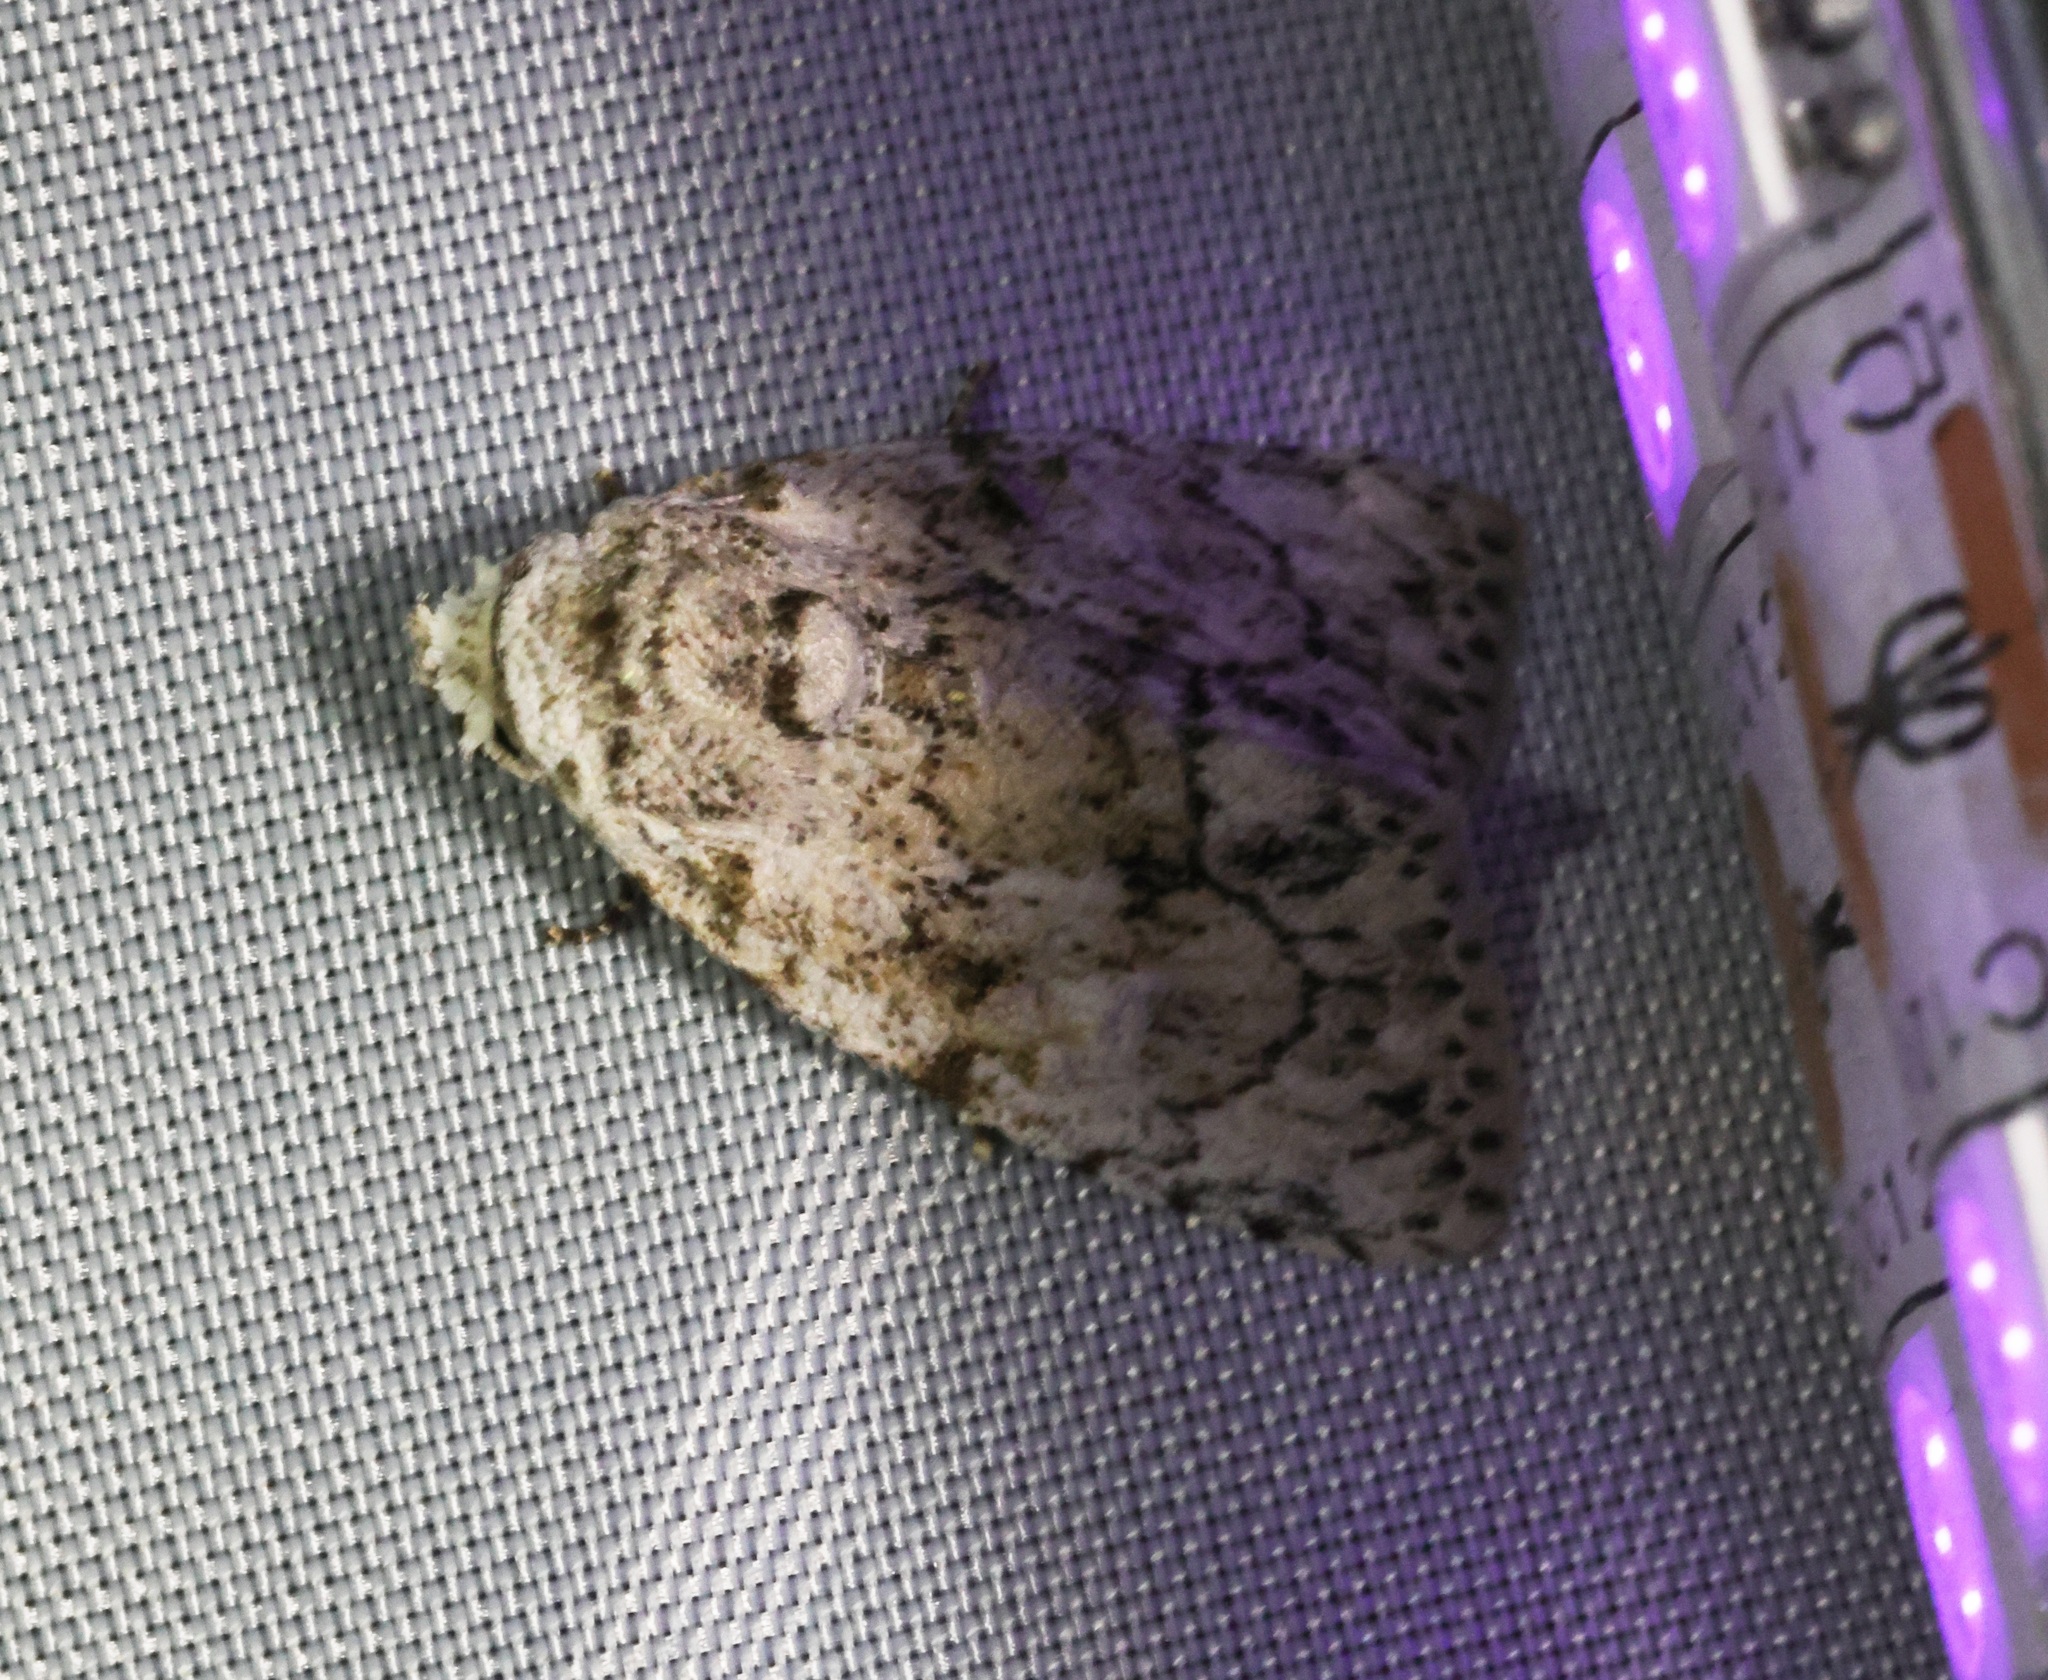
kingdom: Animalia
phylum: Arthropoda
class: Insecta
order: Lepidoptera
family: Nolidae
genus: Barasa
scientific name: Barasa acronyctoides
